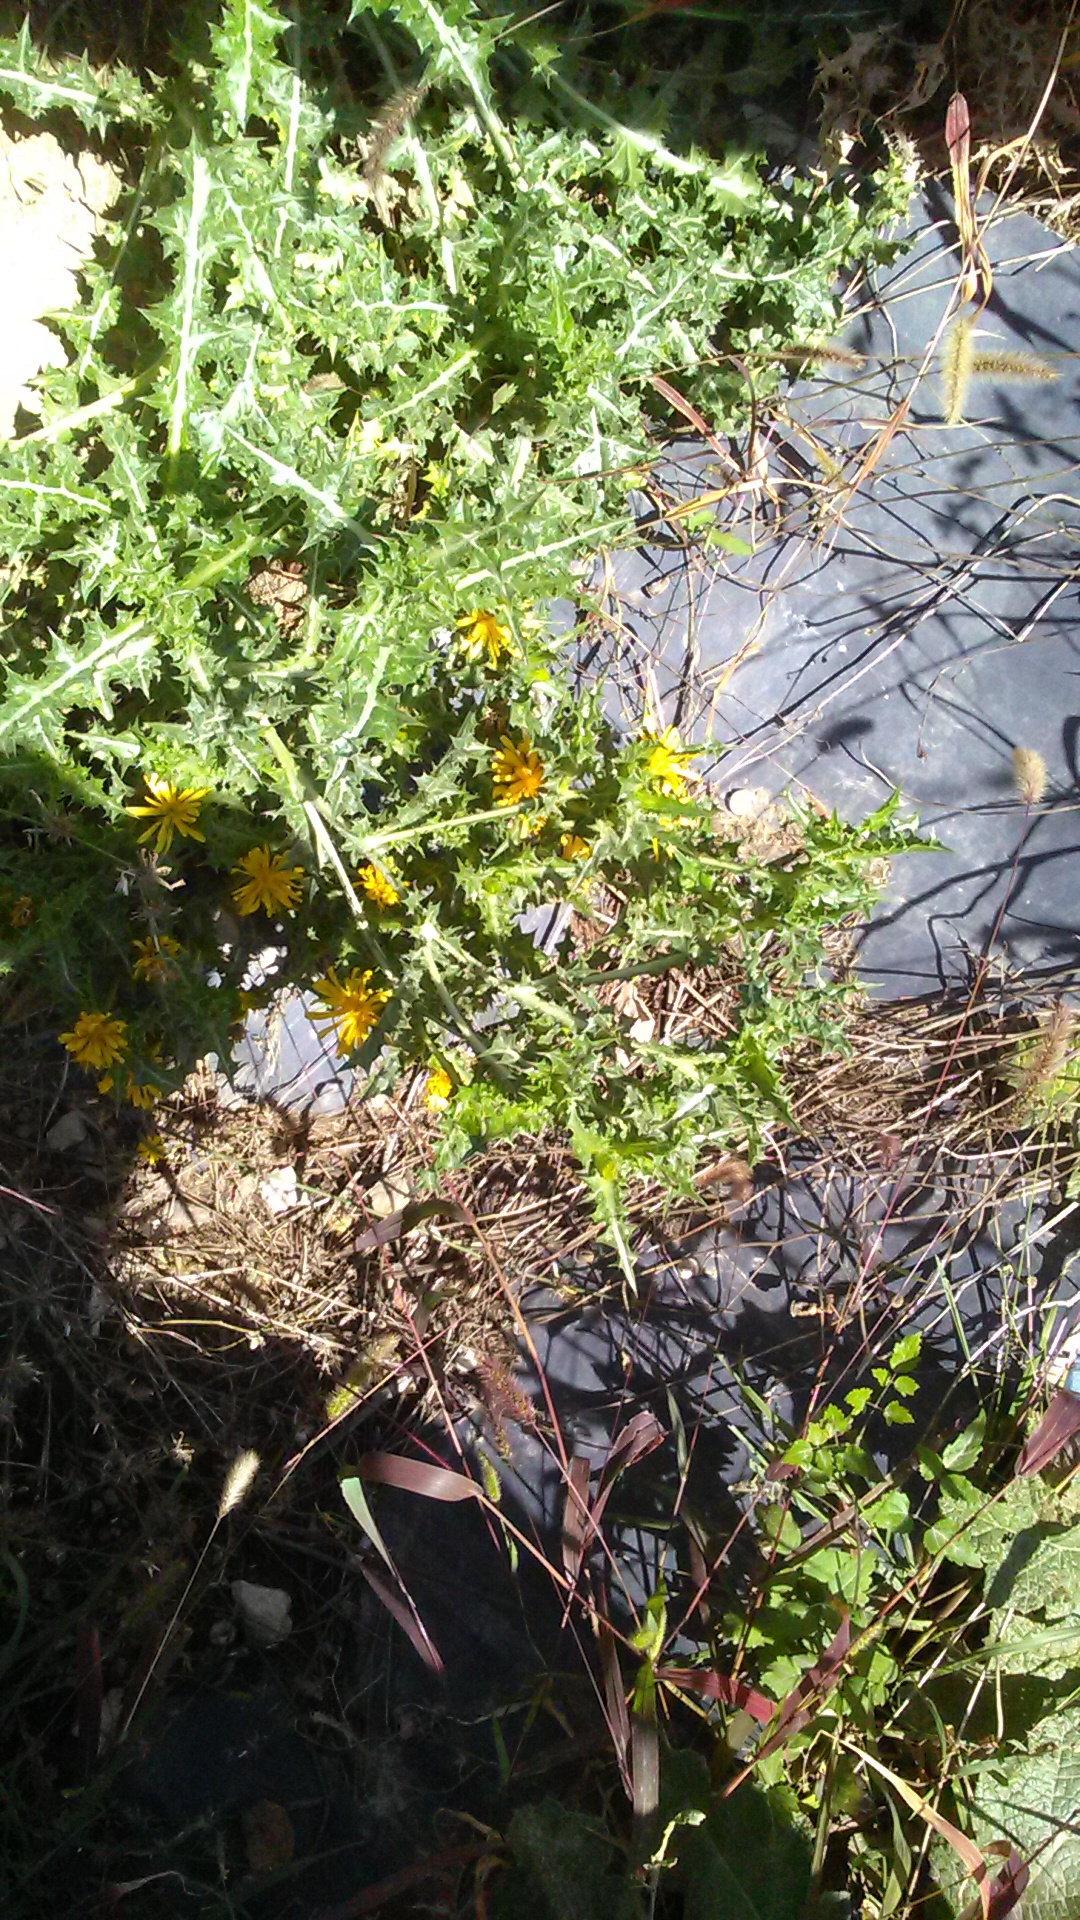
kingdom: Plantae
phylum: Tracheophyta
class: Magnoliopsida
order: Asterales
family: Asteraceae
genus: Scolymus
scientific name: Scolymus hispanicus
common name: Golden thistle
